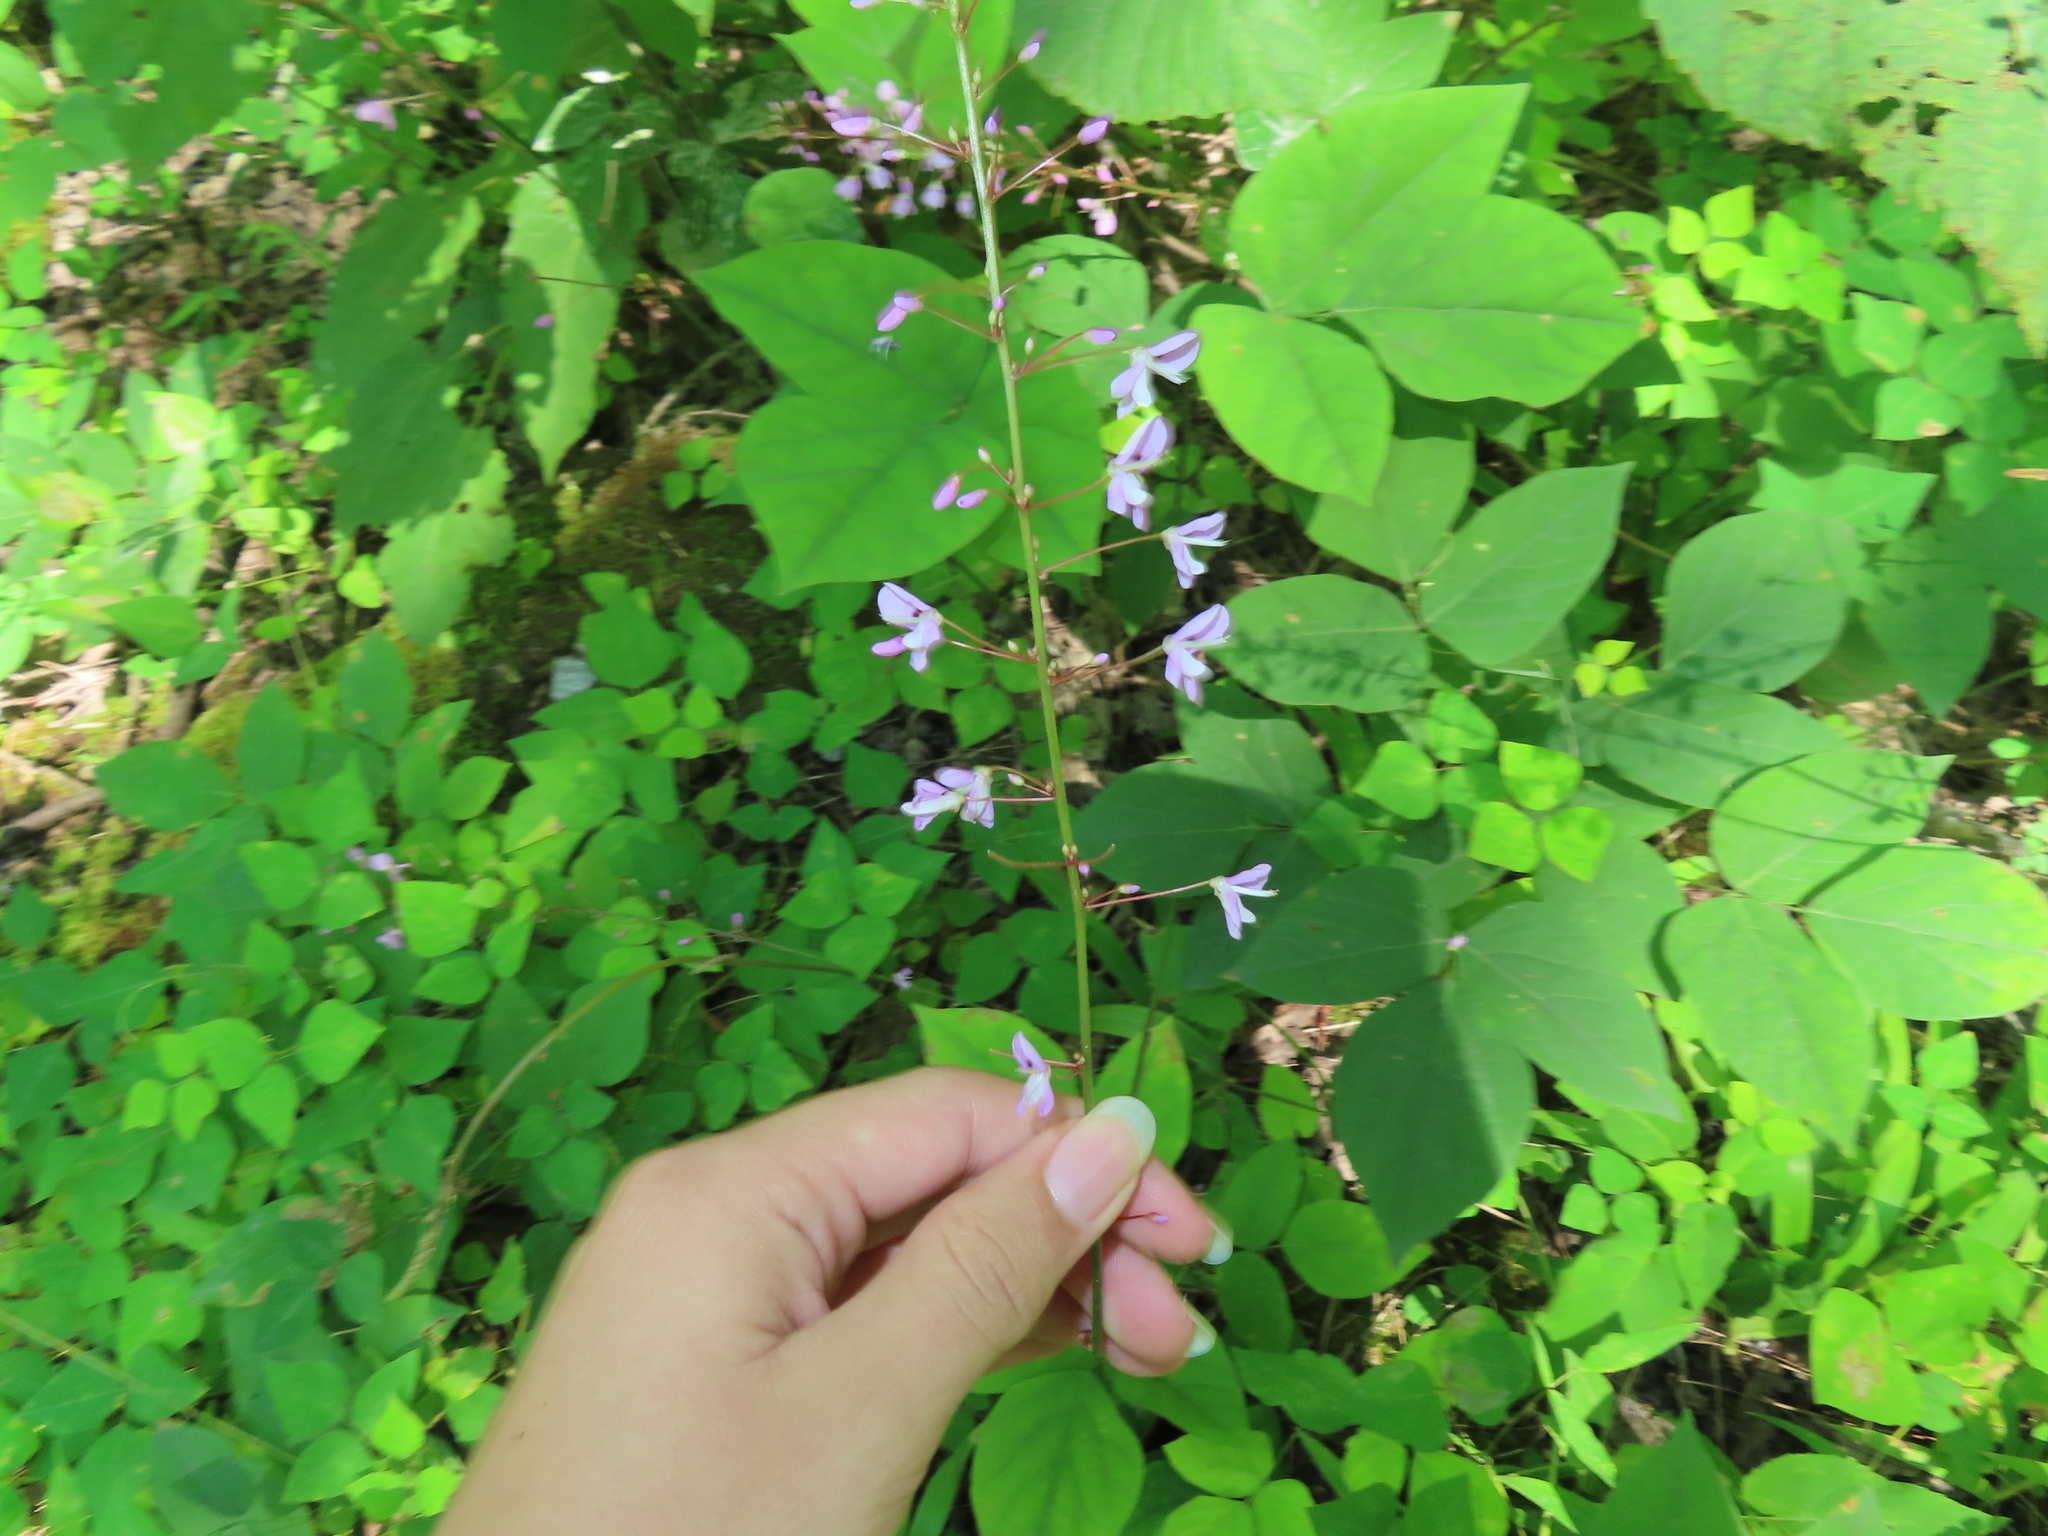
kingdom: Plantae
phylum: Tracheophyta
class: Magnoliopsida
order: Fabales
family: Fabaceae
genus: Hylodesmum
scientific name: Hylodesmum nudiflorum
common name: Bare-stemmed tick-trefoil
